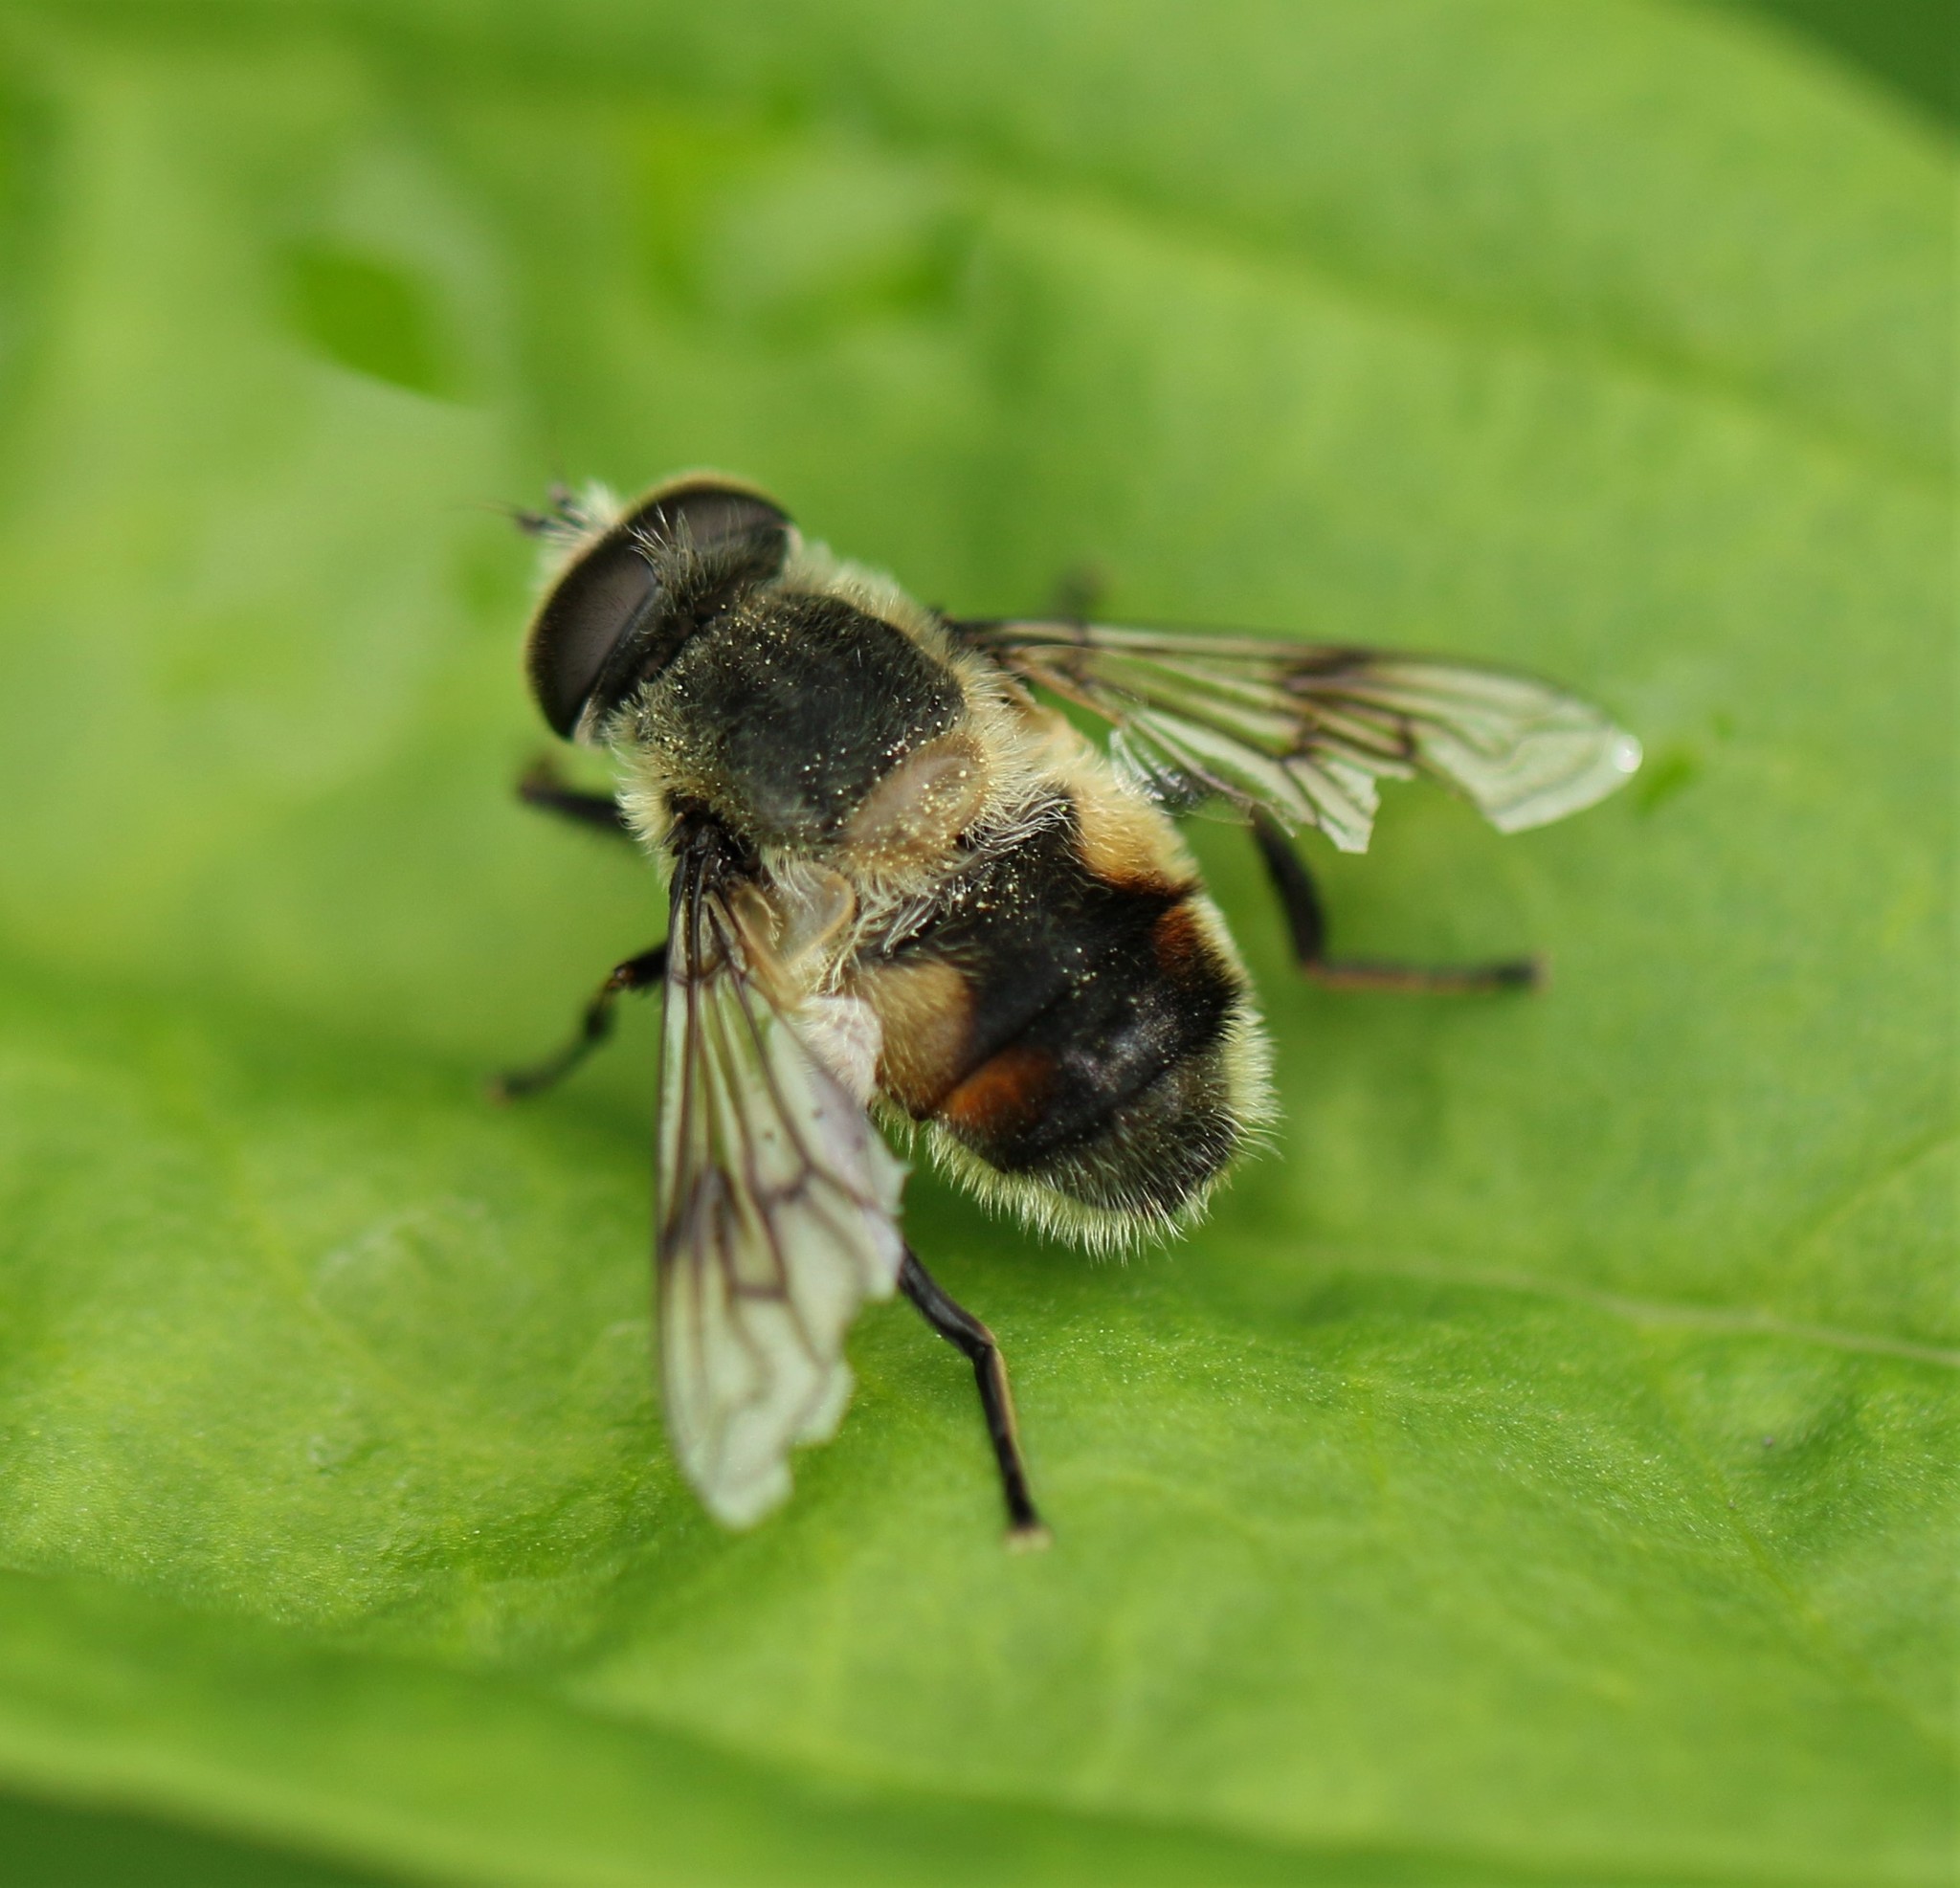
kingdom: Animalia
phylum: Arthropoda
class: Insecta
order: Diptera
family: Syrphidae
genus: Eristalis
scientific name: Eristalis anthophorina
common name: Orange-spotted drone fly
